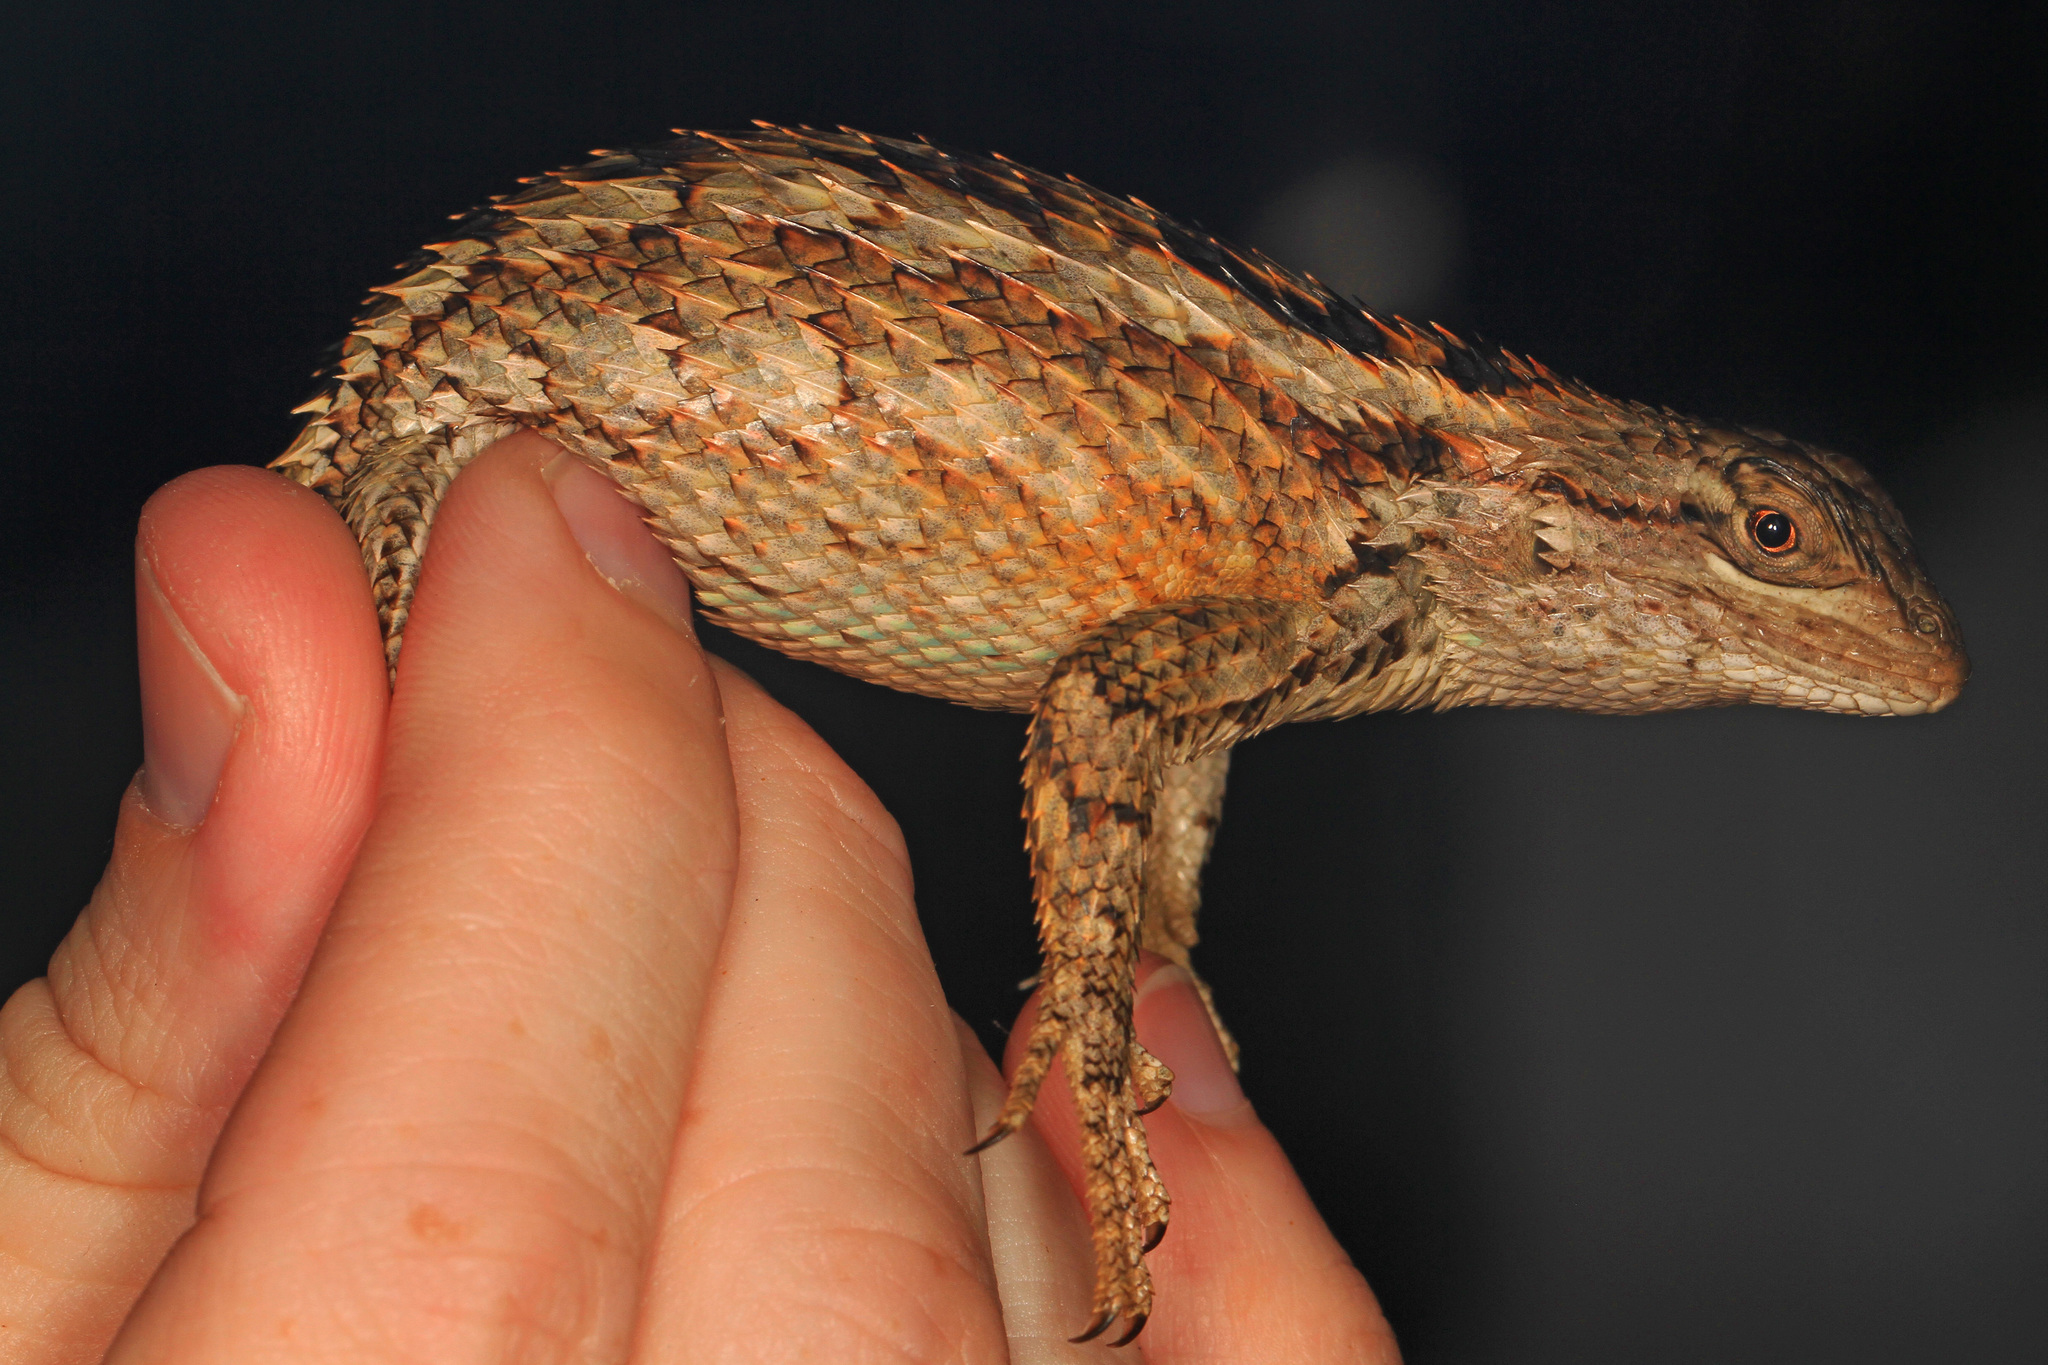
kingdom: Animalia
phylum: Chordata
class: Squamata
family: Phrynosomatidae
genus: Sceloporus
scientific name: Sceloporus olivaceus
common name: Texas spiny lizard
